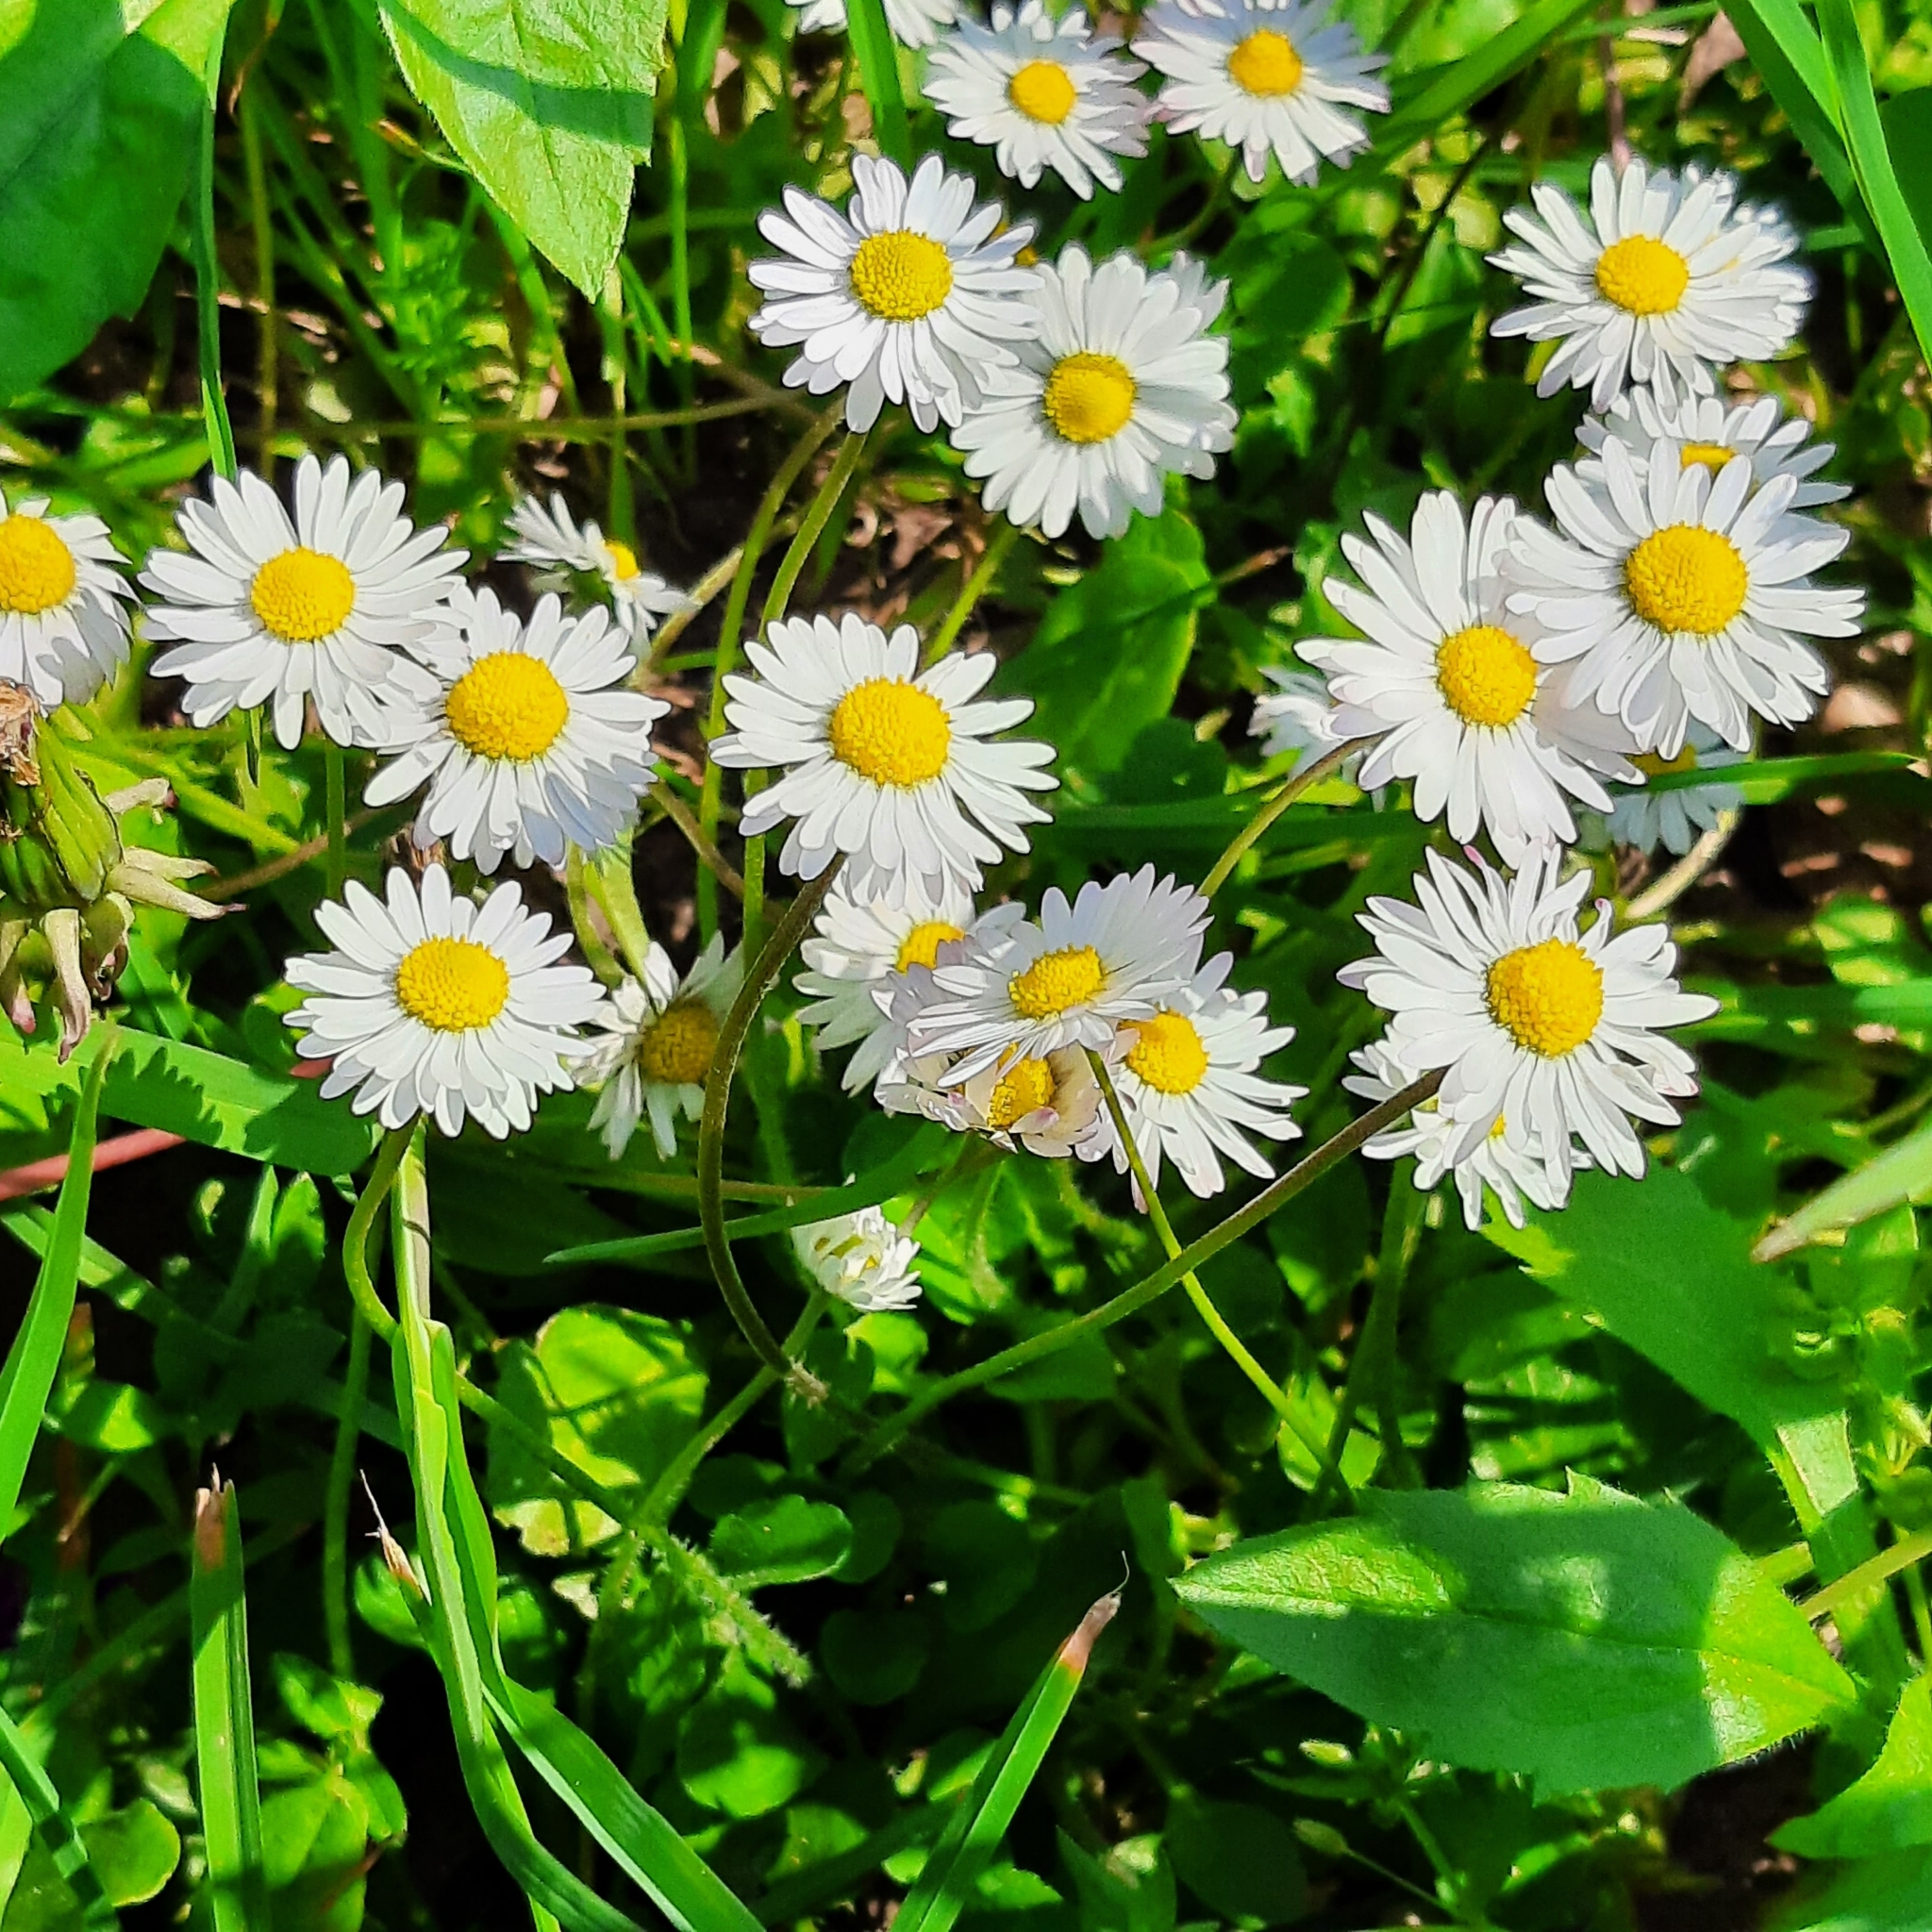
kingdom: Plantae
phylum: Tracheophyta
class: Magnoliopsida
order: Asterales
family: Asteraceae
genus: Bellis
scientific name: Bellis perennis
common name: Lawndaisy
